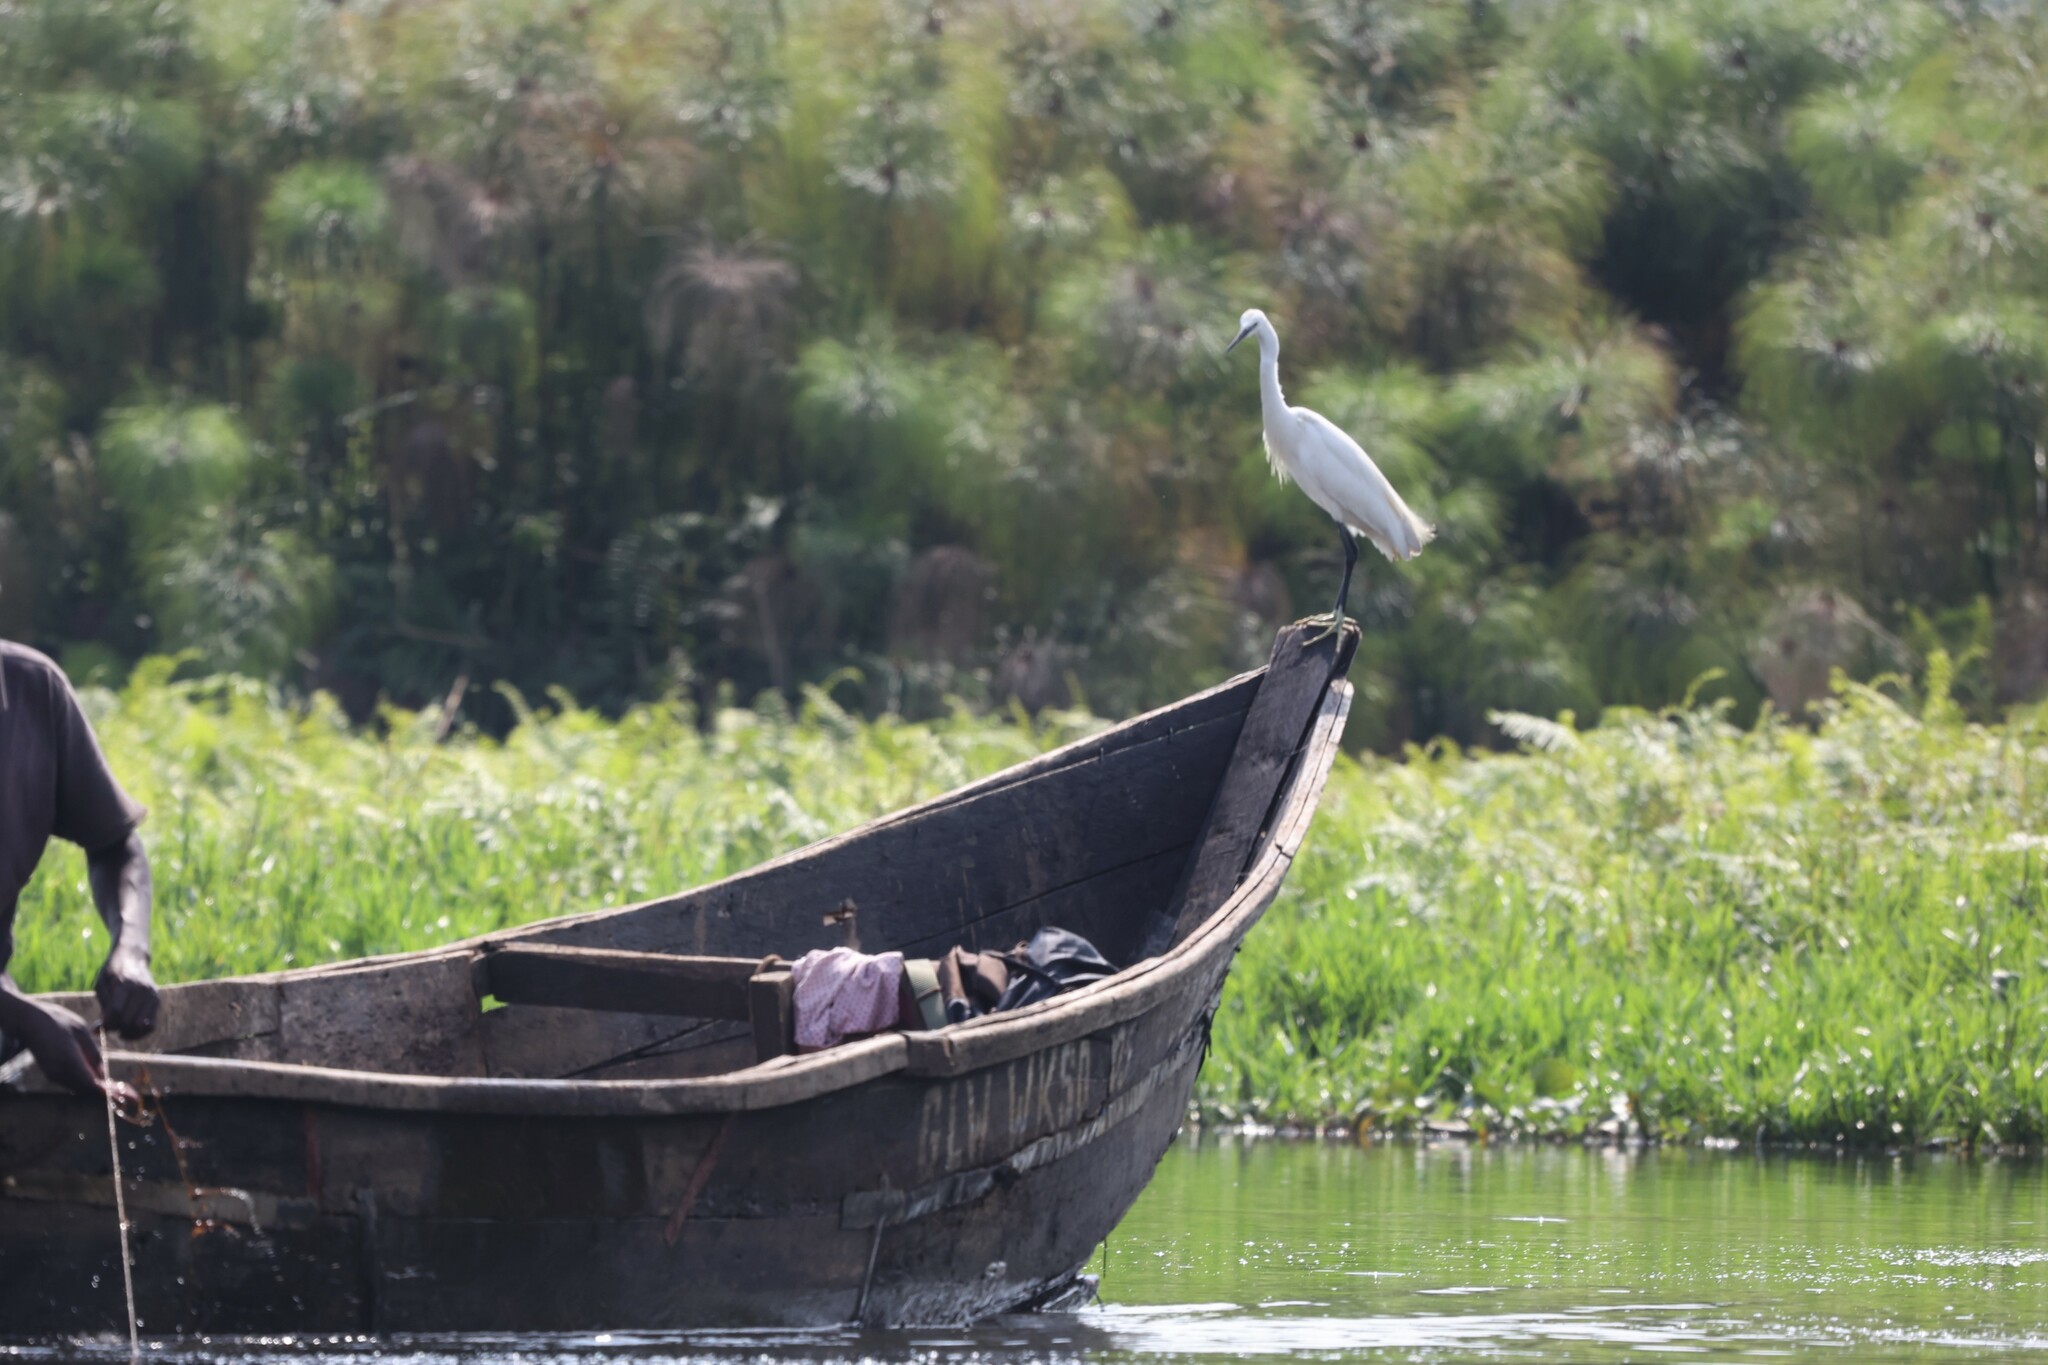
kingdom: Animalia
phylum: Chordata
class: Aves
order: Pelecaniformes
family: Ardeidae
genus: Egretta
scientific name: Egretta garzetta
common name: Little egret
